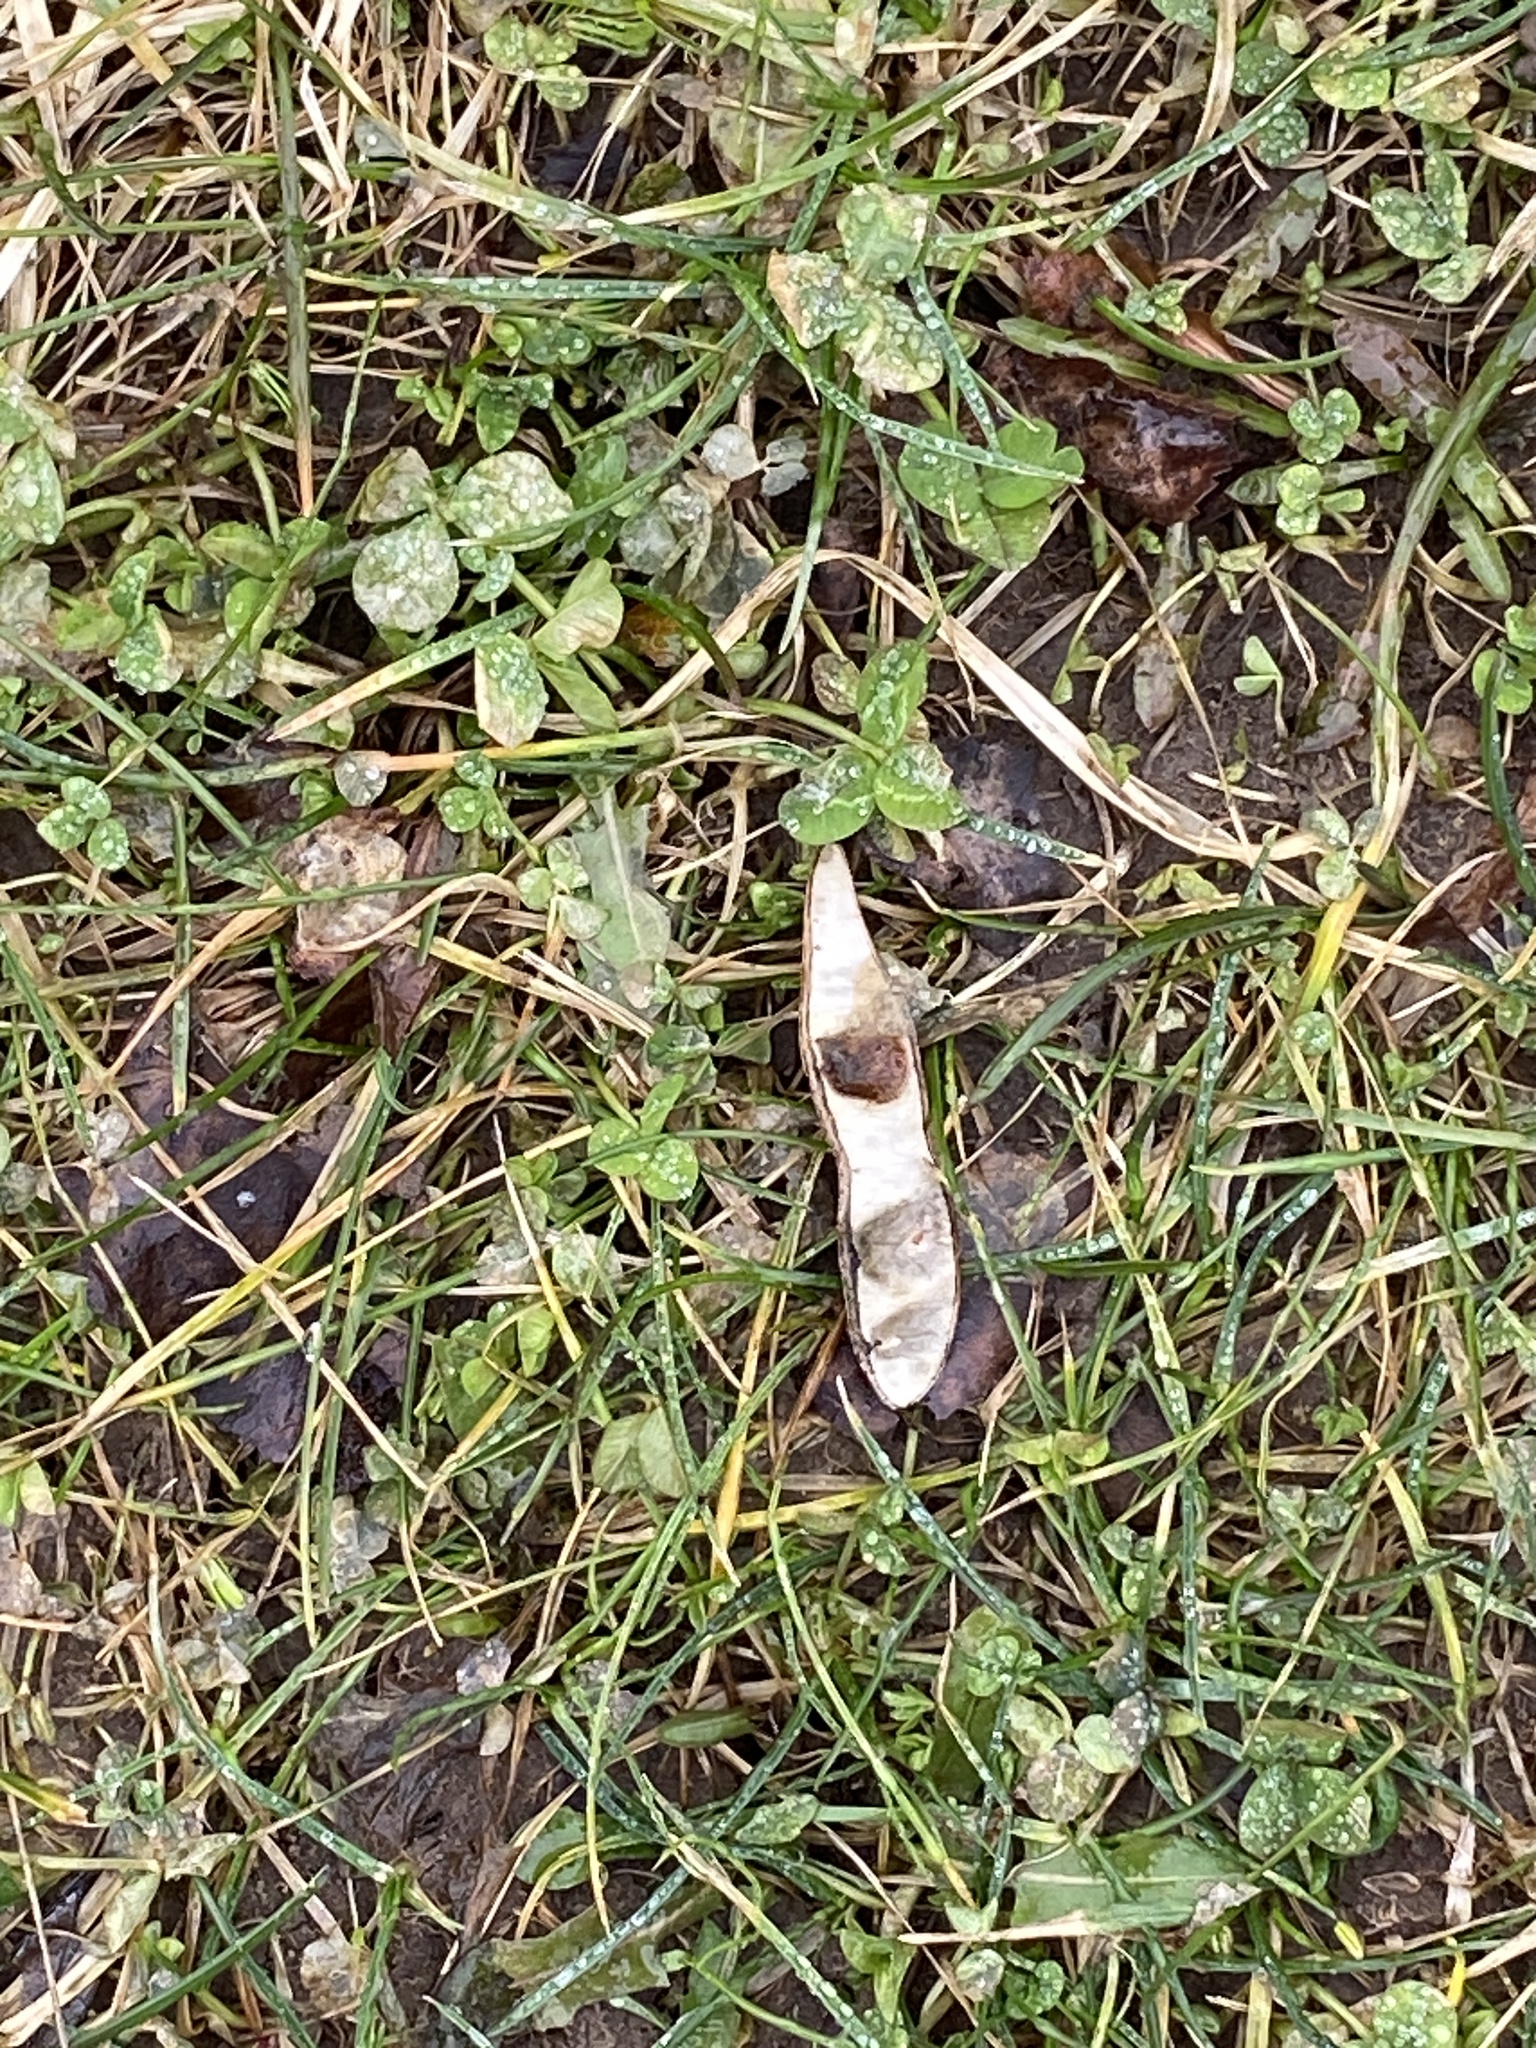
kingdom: Plantae
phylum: Tracheophyta
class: Magnoliopsida
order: Fabales
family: Fabaceae
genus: Robinia
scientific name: Robinia pseudoacacia
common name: Black locust
